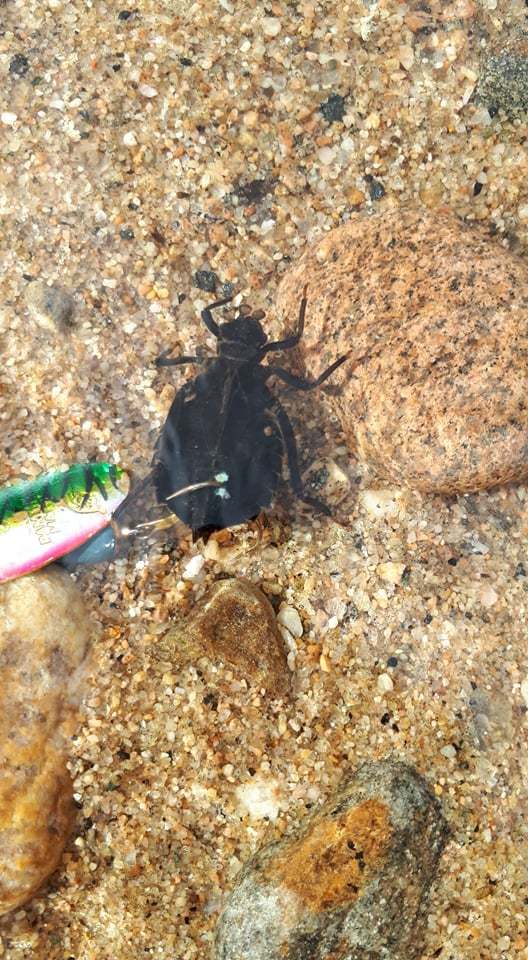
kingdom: Animalia
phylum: Arthropoda
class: Insecta
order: Odonata
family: Gomphidae
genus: Hagenius
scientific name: Hagenius brevistylus
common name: Dragonhunter
